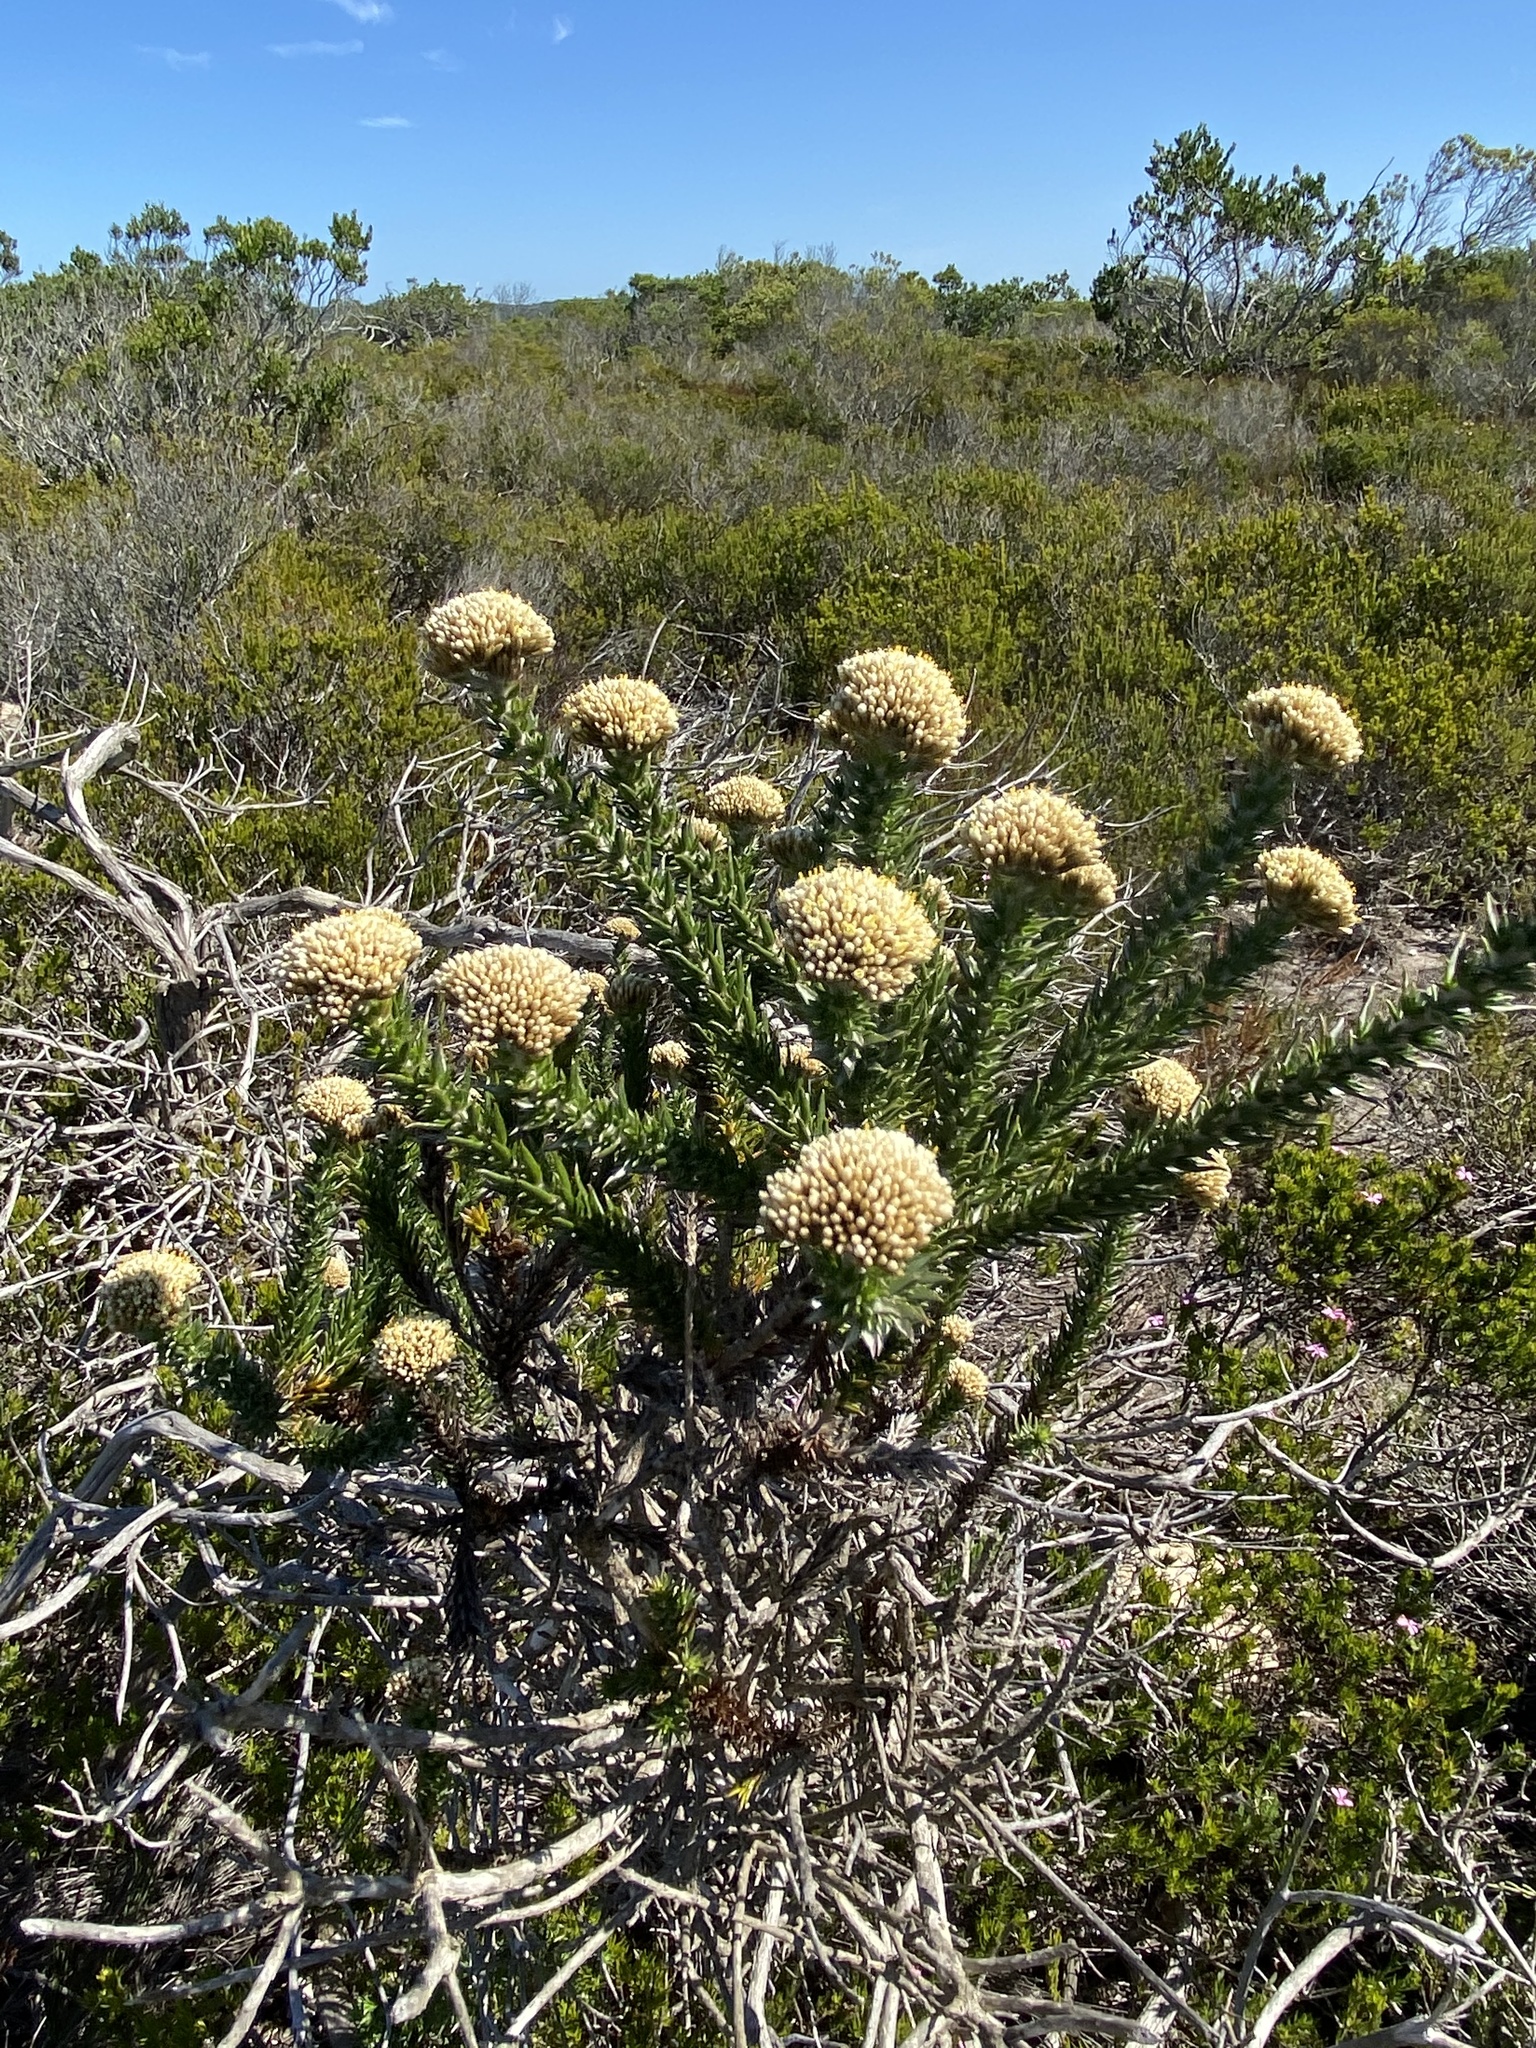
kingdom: Plantae
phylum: Tracheophyta
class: Magnoliopsida
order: Asterales
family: Asteraceae
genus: Metalasia
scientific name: Metalasia luteola
